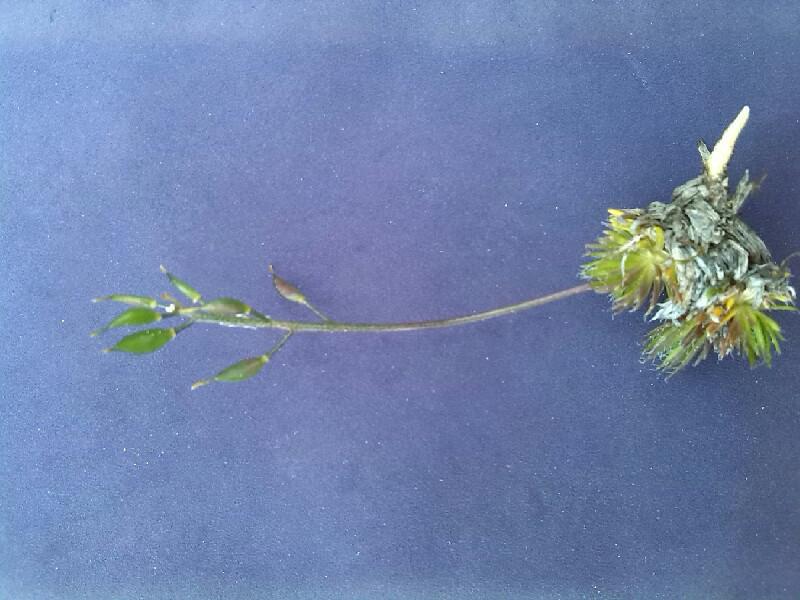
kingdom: Plantae
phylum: Tracheophyta
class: Magnoliopsida
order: Brassicales
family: Brassicaceae
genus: Draba
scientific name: Draba aizoides
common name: Yellow whitlowgrass
